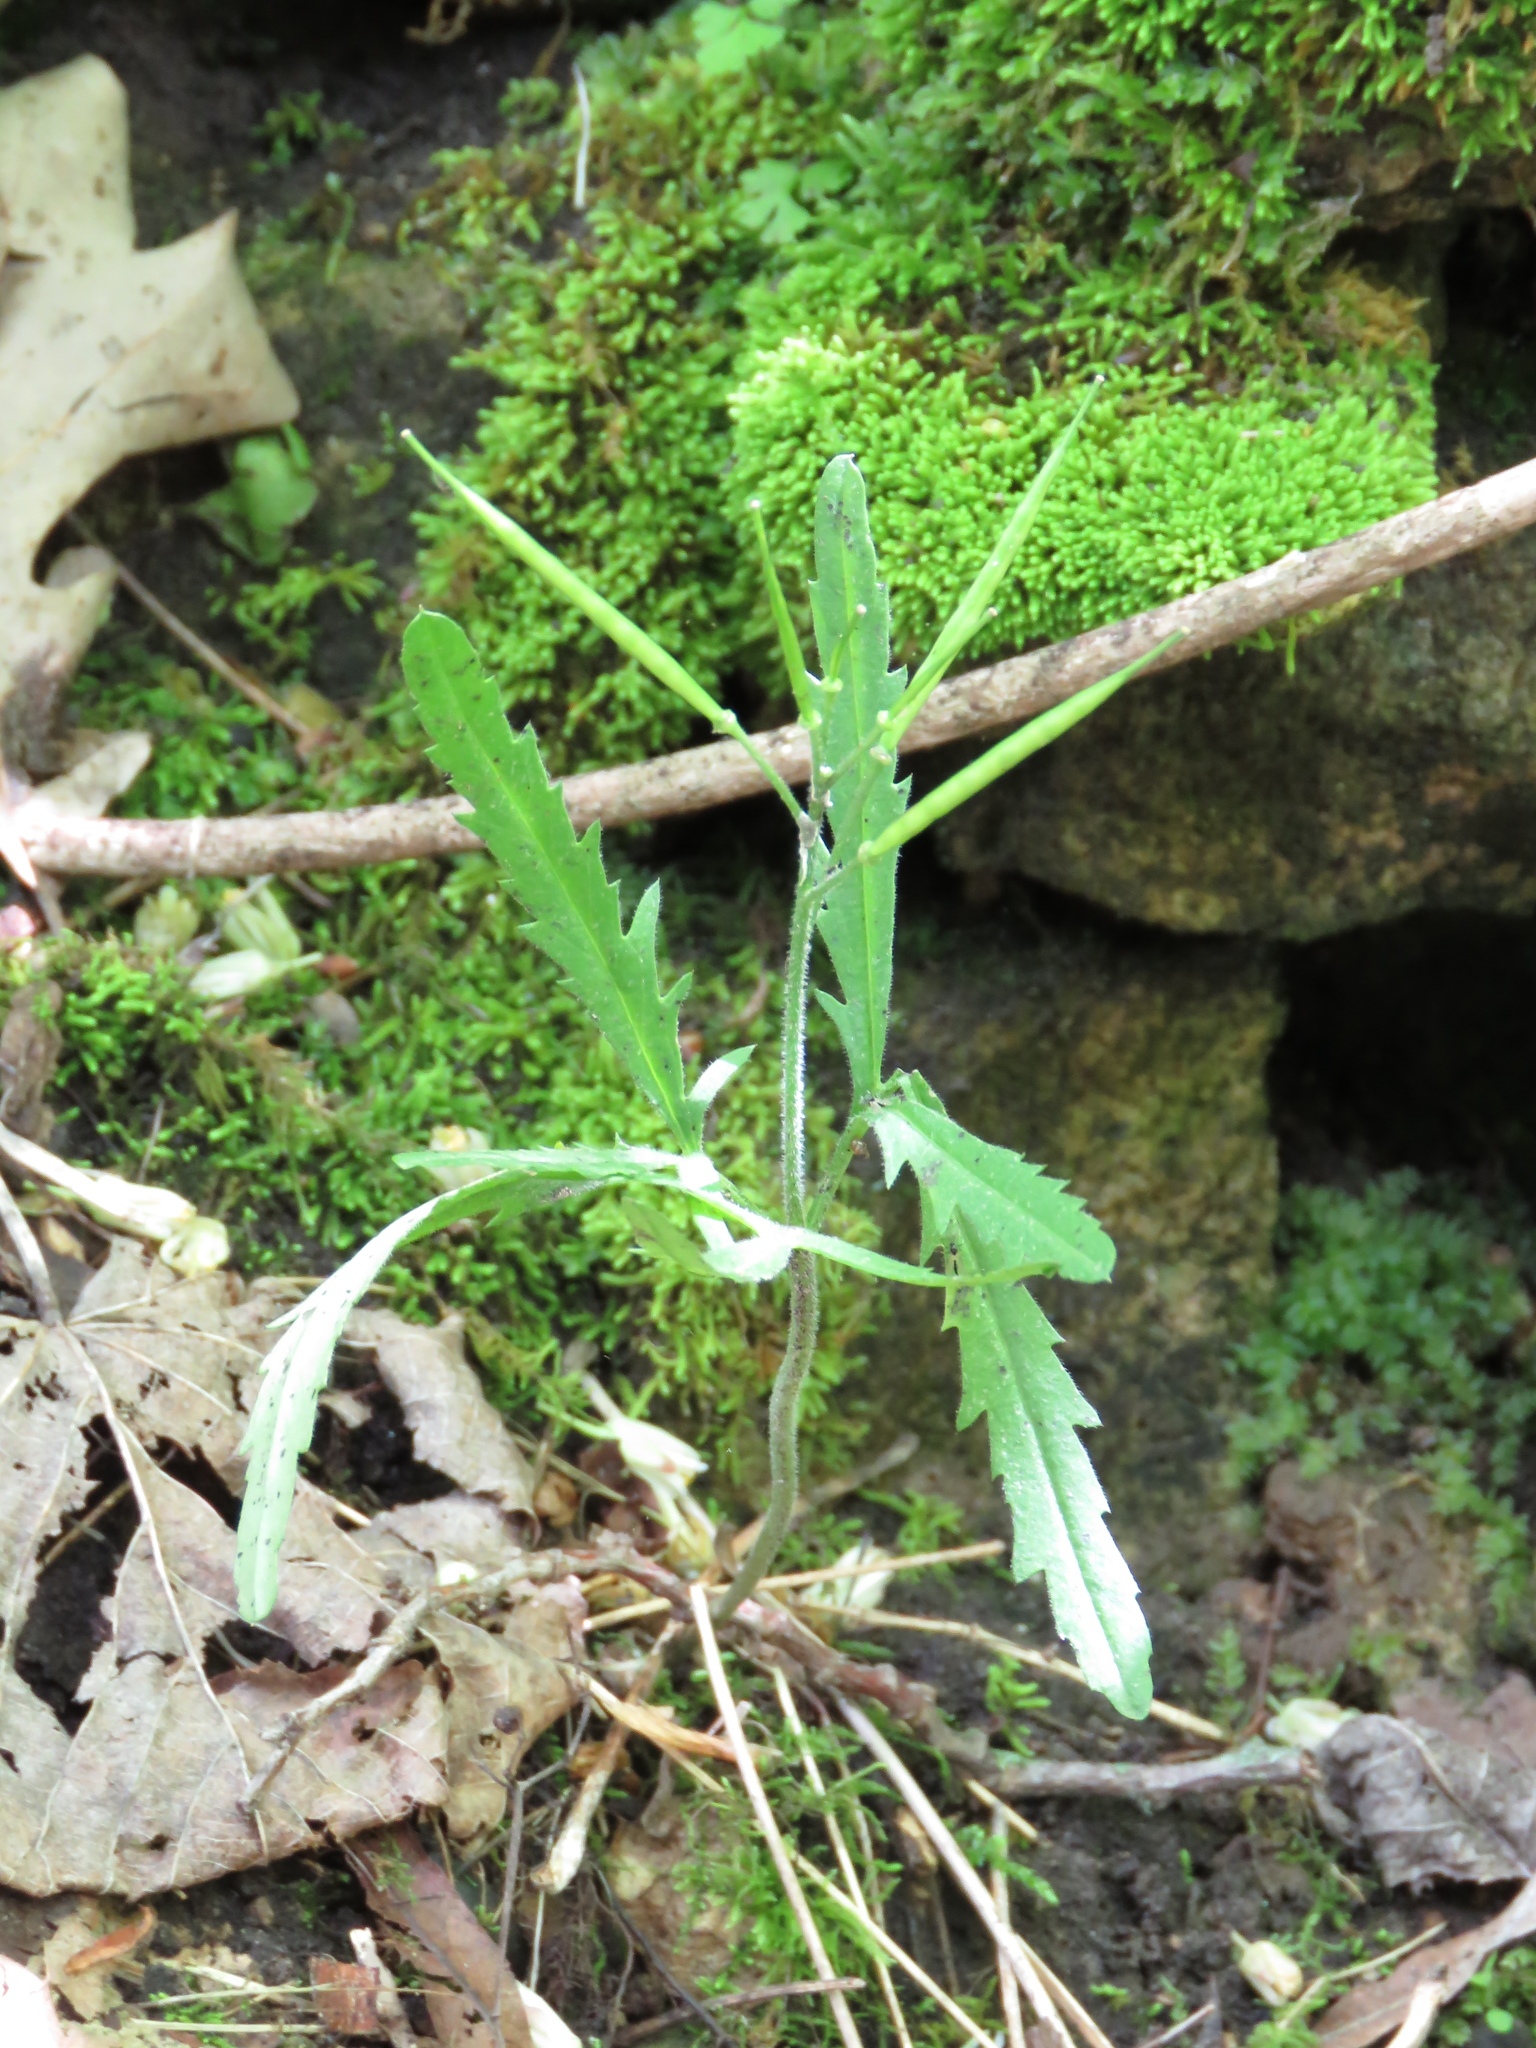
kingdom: Plantae
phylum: Tracheophyta
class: Magnoliopsida
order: Brassicales
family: Brassicaceae
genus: Cardamine
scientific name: Cardamine concatenata
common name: Cut-leaf toothcup
